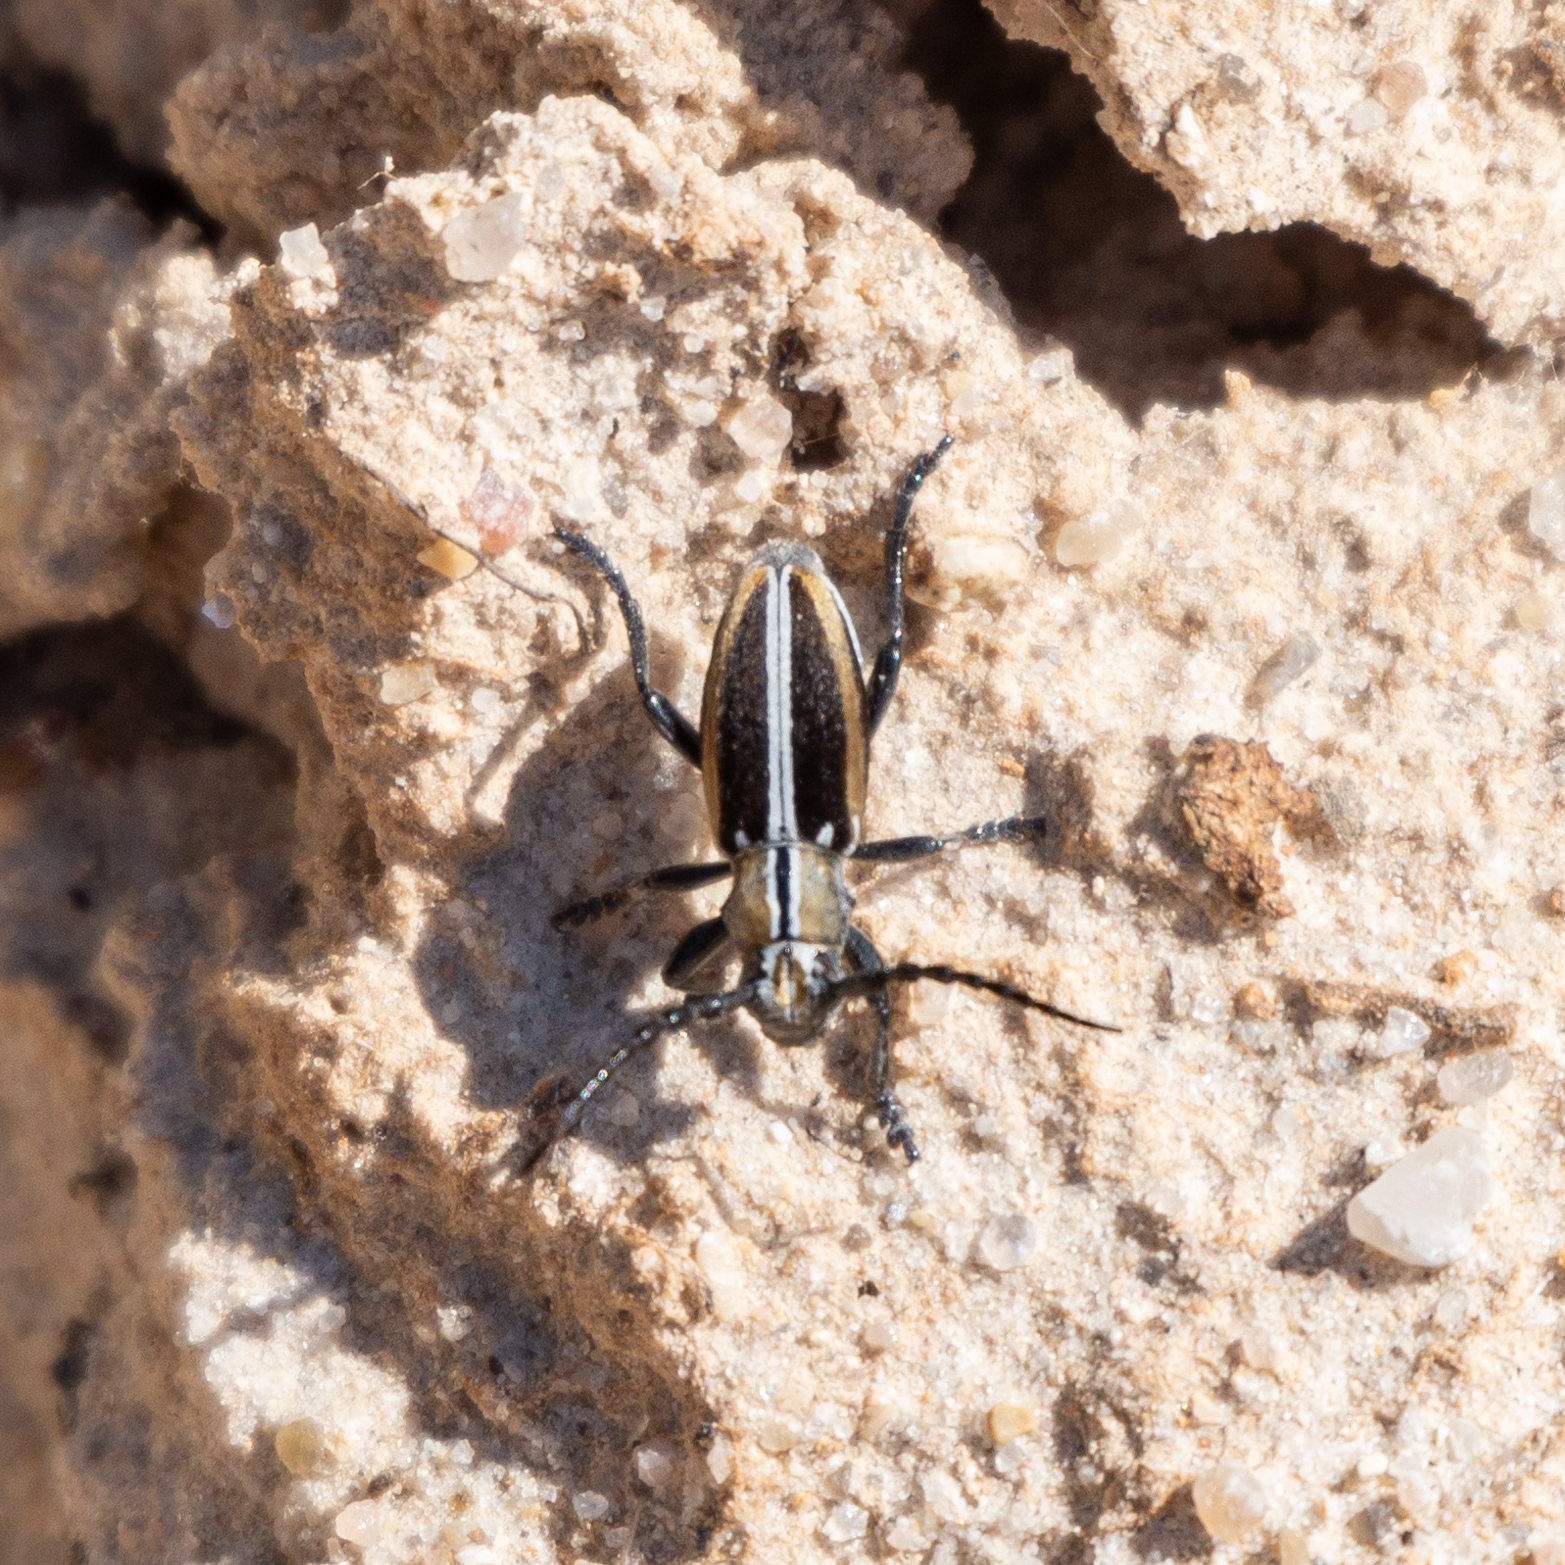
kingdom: Animalia
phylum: Arthropoda
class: Insecta
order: Coleoptera
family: Cerambycidae
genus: Iberodorcadion
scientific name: Iberodorcadion circumcinctum
